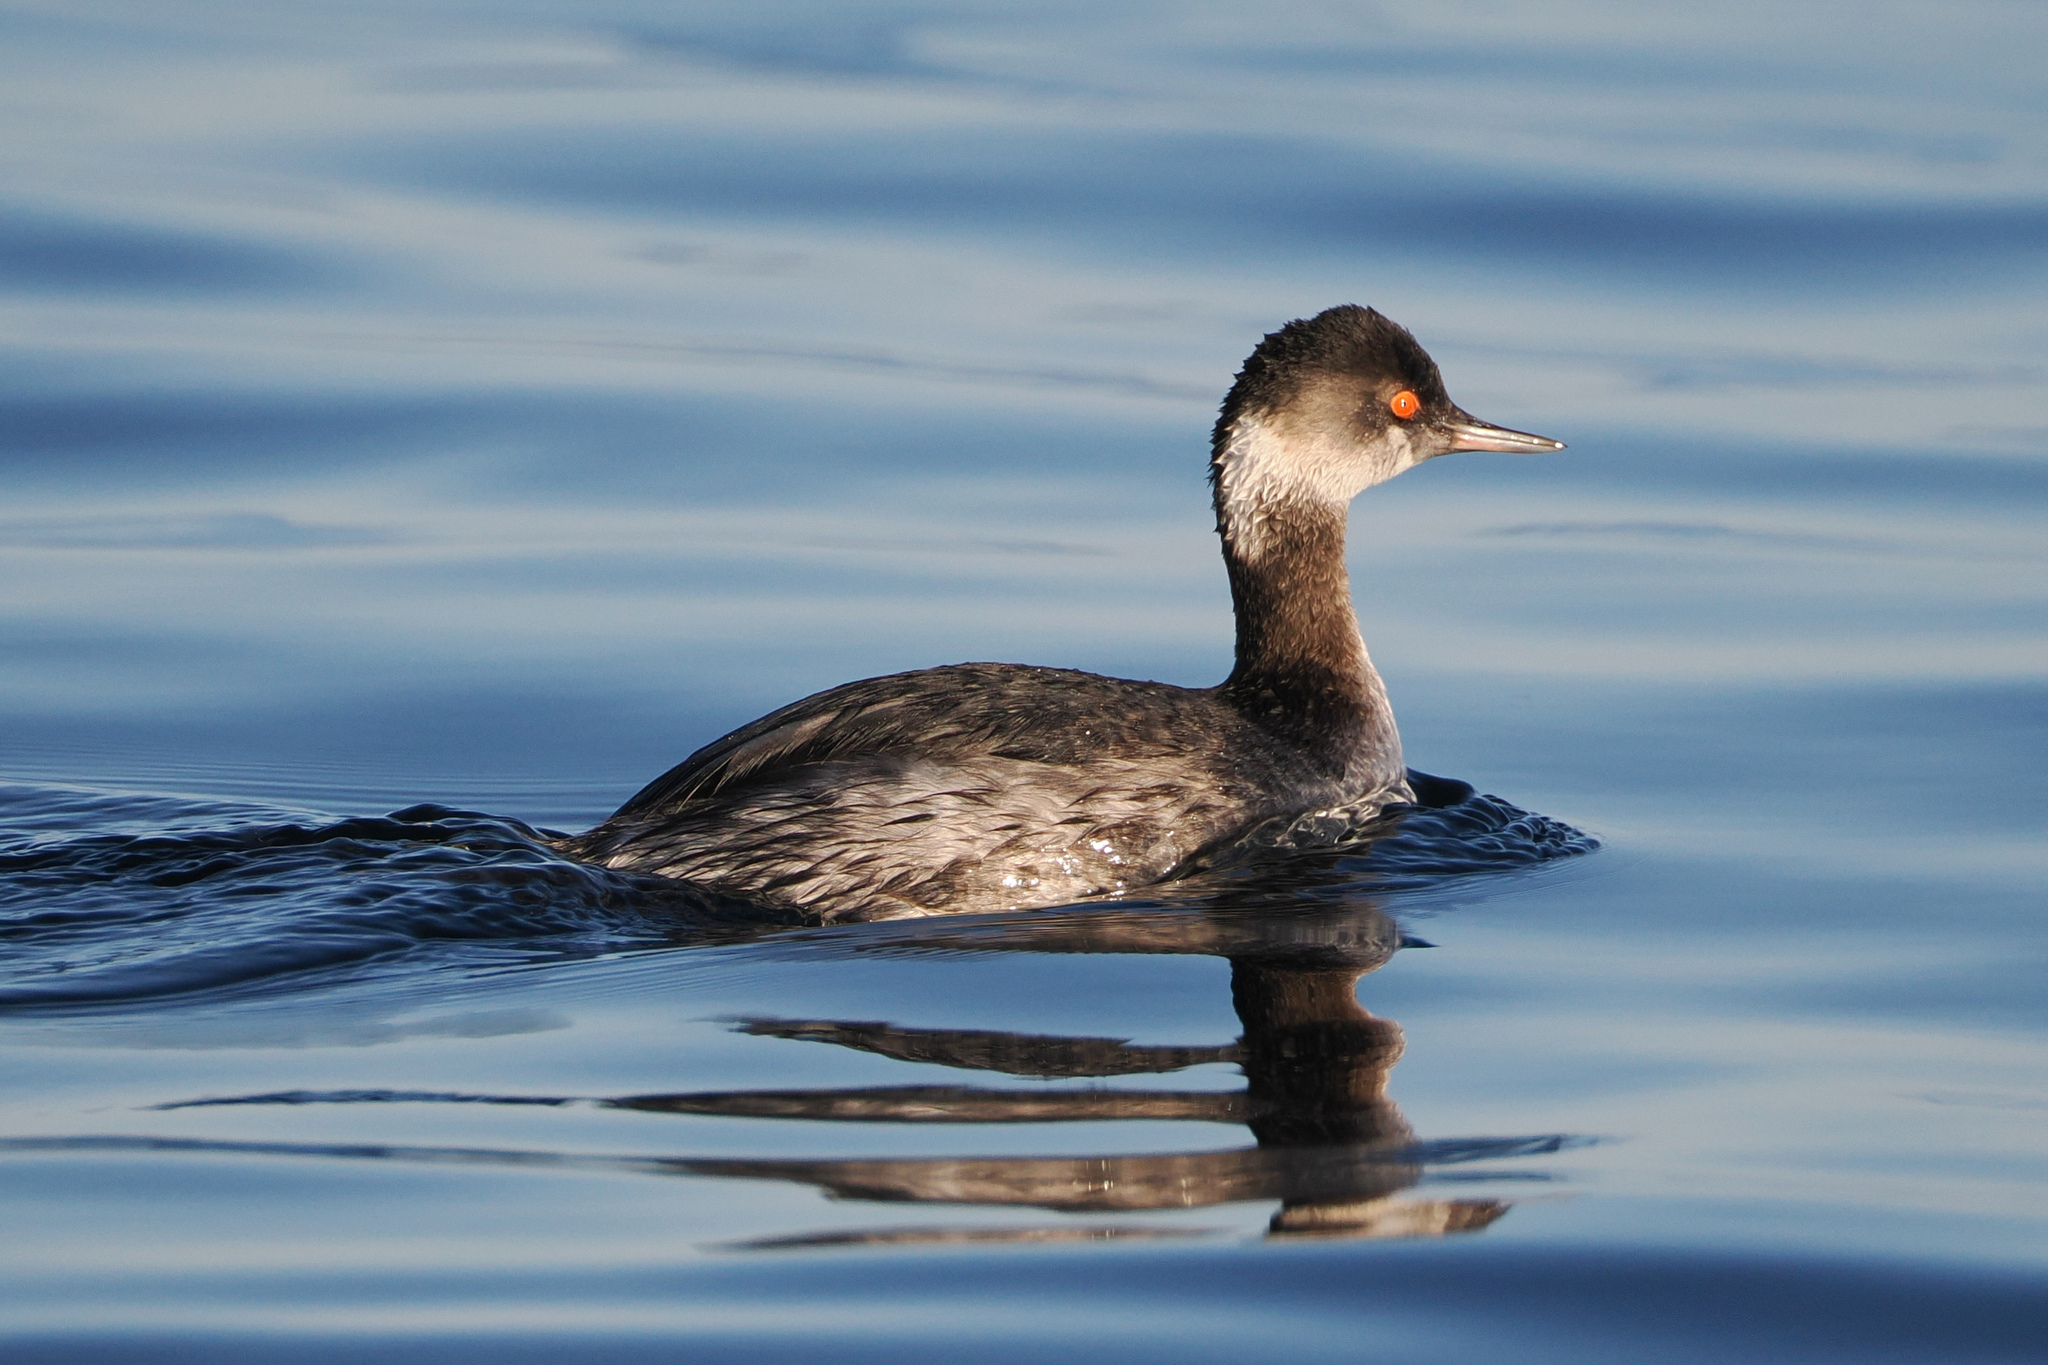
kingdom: Animalia
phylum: Chordata
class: Aves
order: Podicipediformes
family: Podicipedidae
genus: Podiceps
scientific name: Podiceps nigricollis
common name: Black-necked grebe
